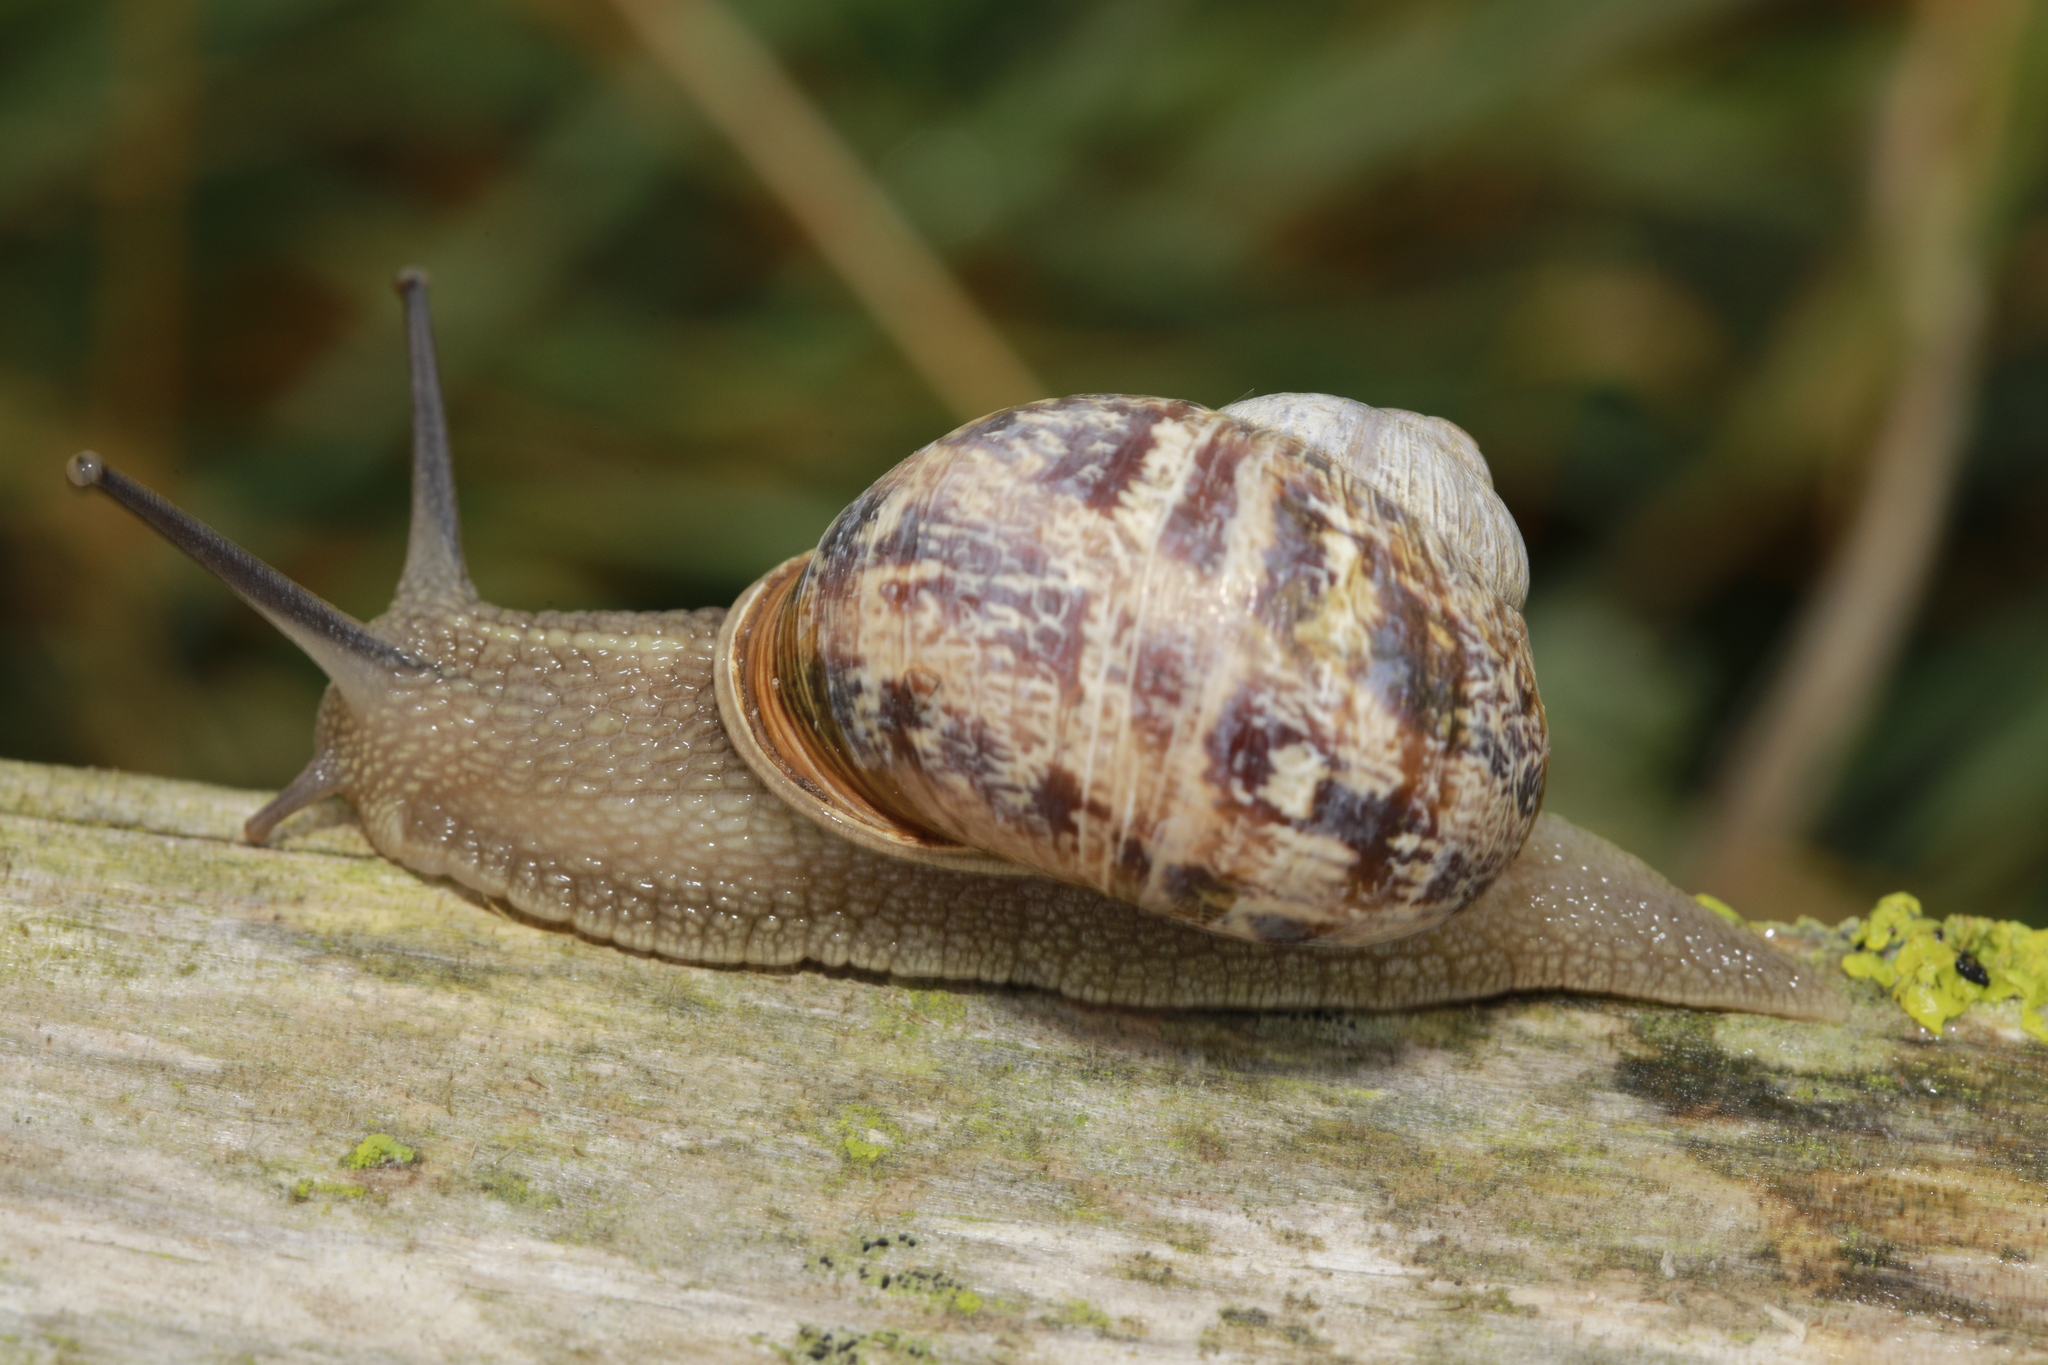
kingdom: Animalia
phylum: Mollusca
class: Gastropoda
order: Stylommatophora
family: Helicidae
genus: Cornu
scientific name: Cornu aspersum
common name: Brown garden snail
